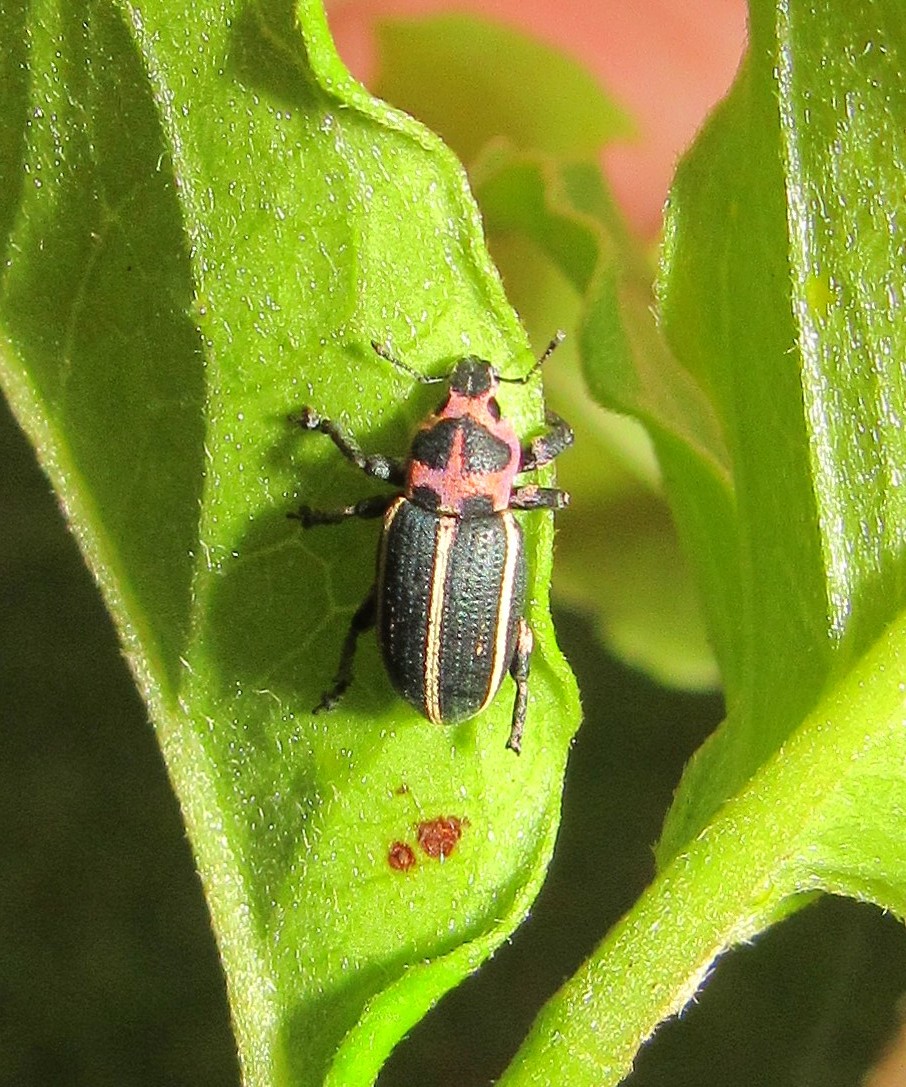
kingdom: Animalia
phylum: Arthropoda
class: Insecta
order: Coleoptera
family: Curculionidae
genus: Eudiagogus
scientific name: Eudiagogus episcopalis
